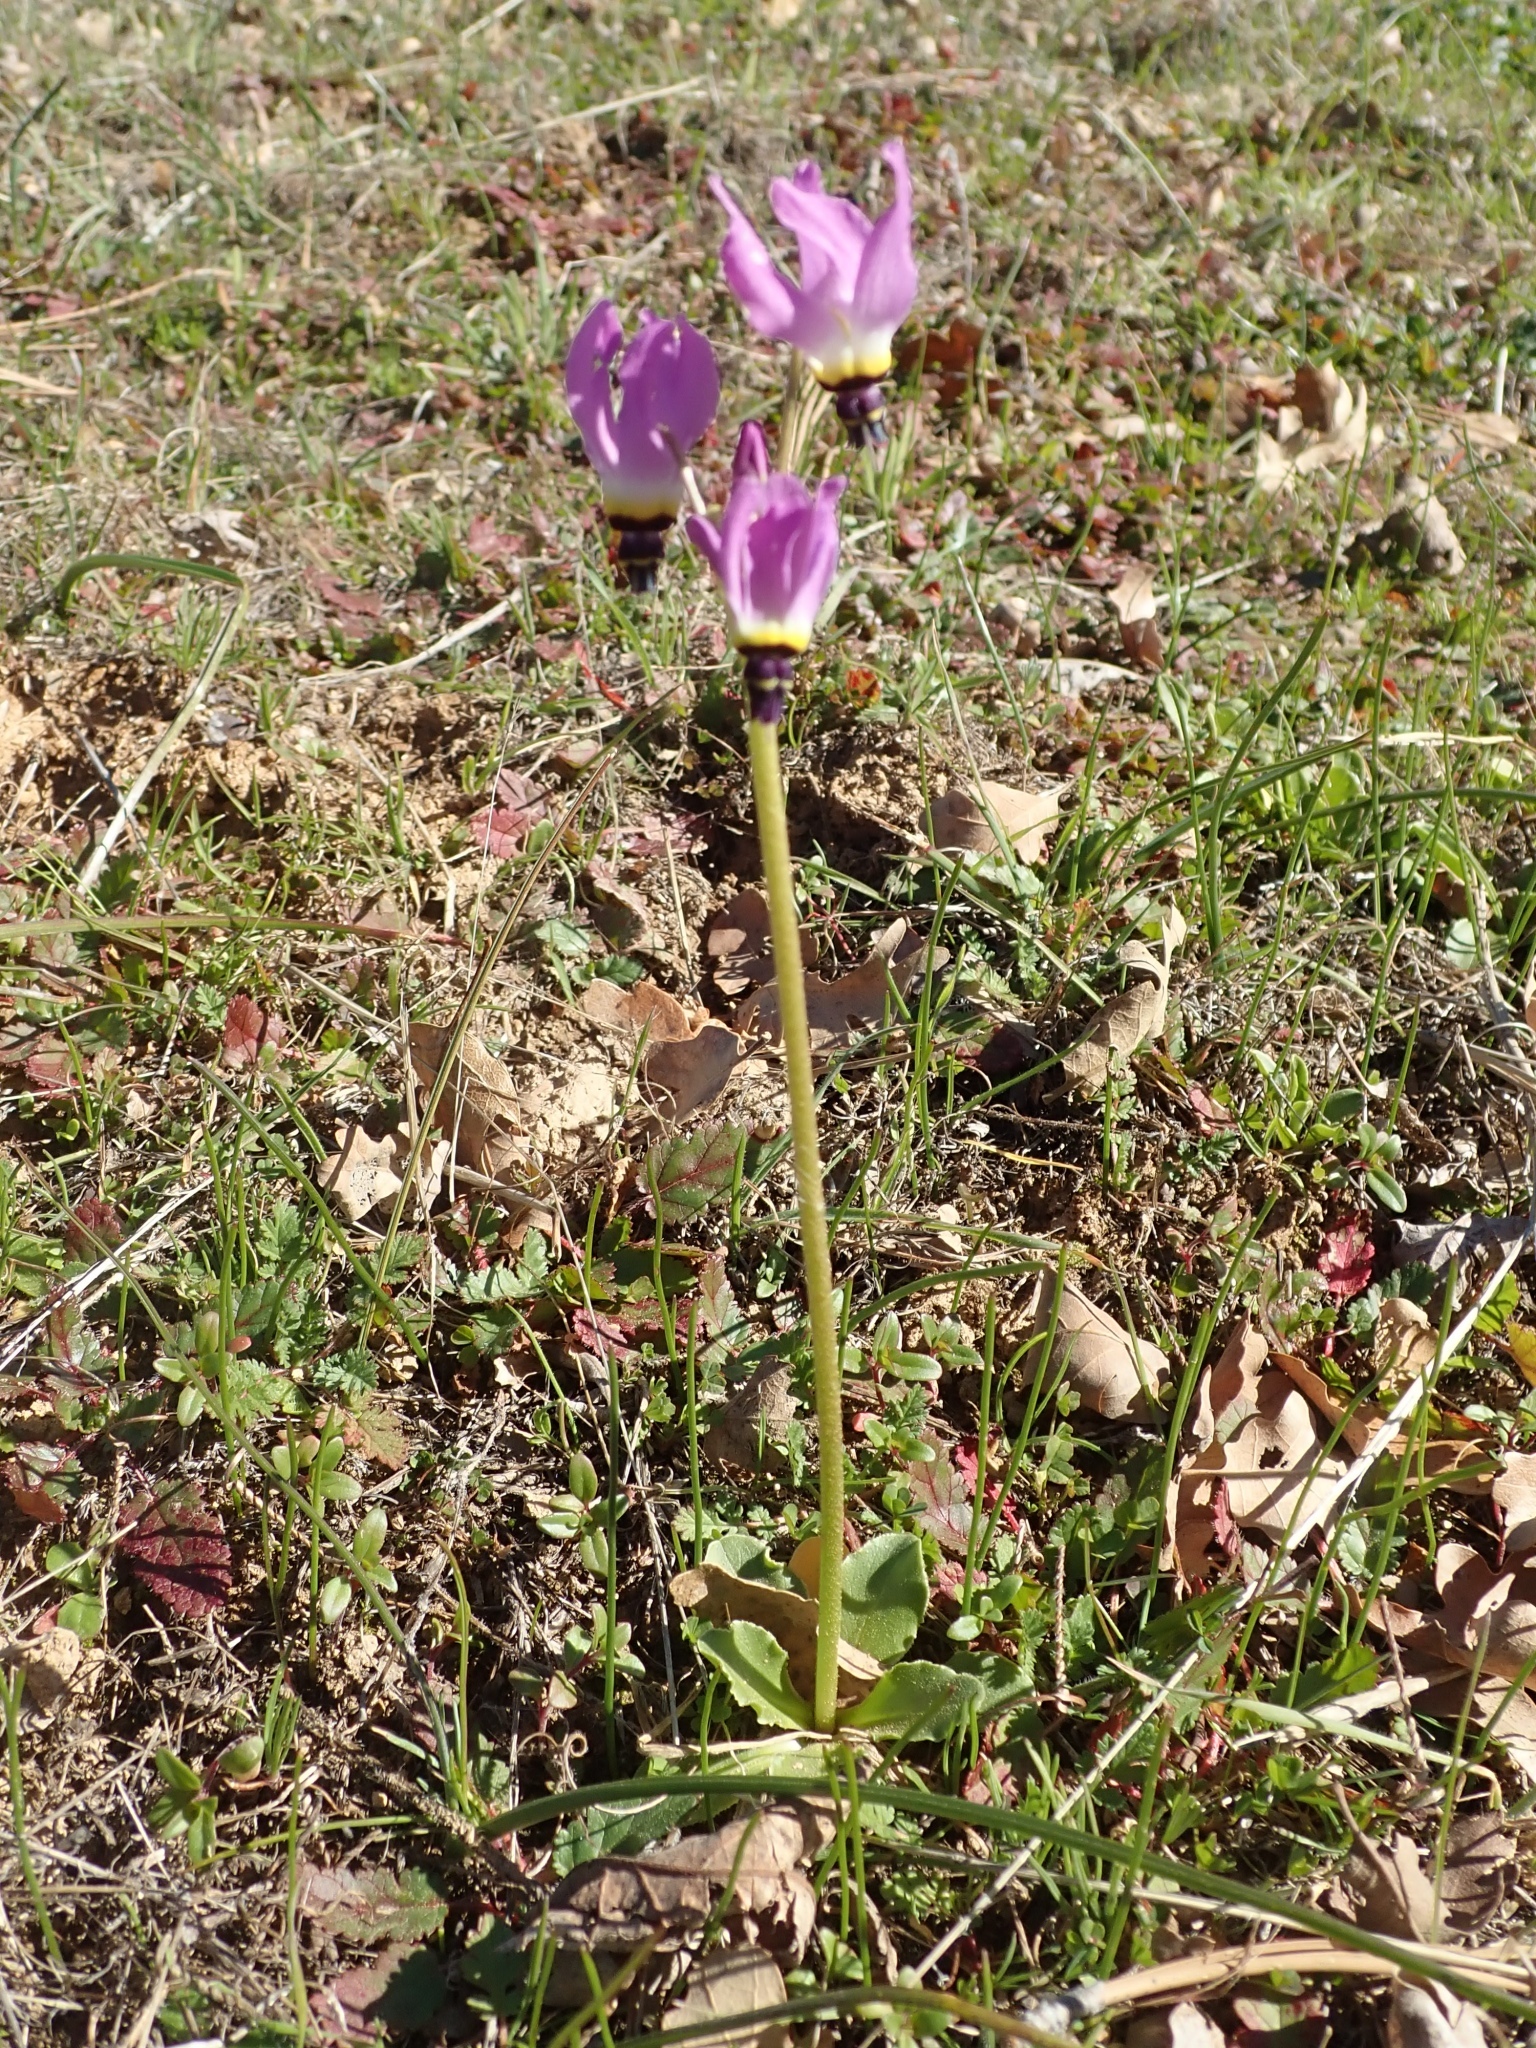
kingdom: Plantae
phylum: Tracheophyta
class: Magnoliopsida
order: Ericales
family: Primulaceae
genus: Dodecatheon
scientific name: Dodecatheon clevelandii
